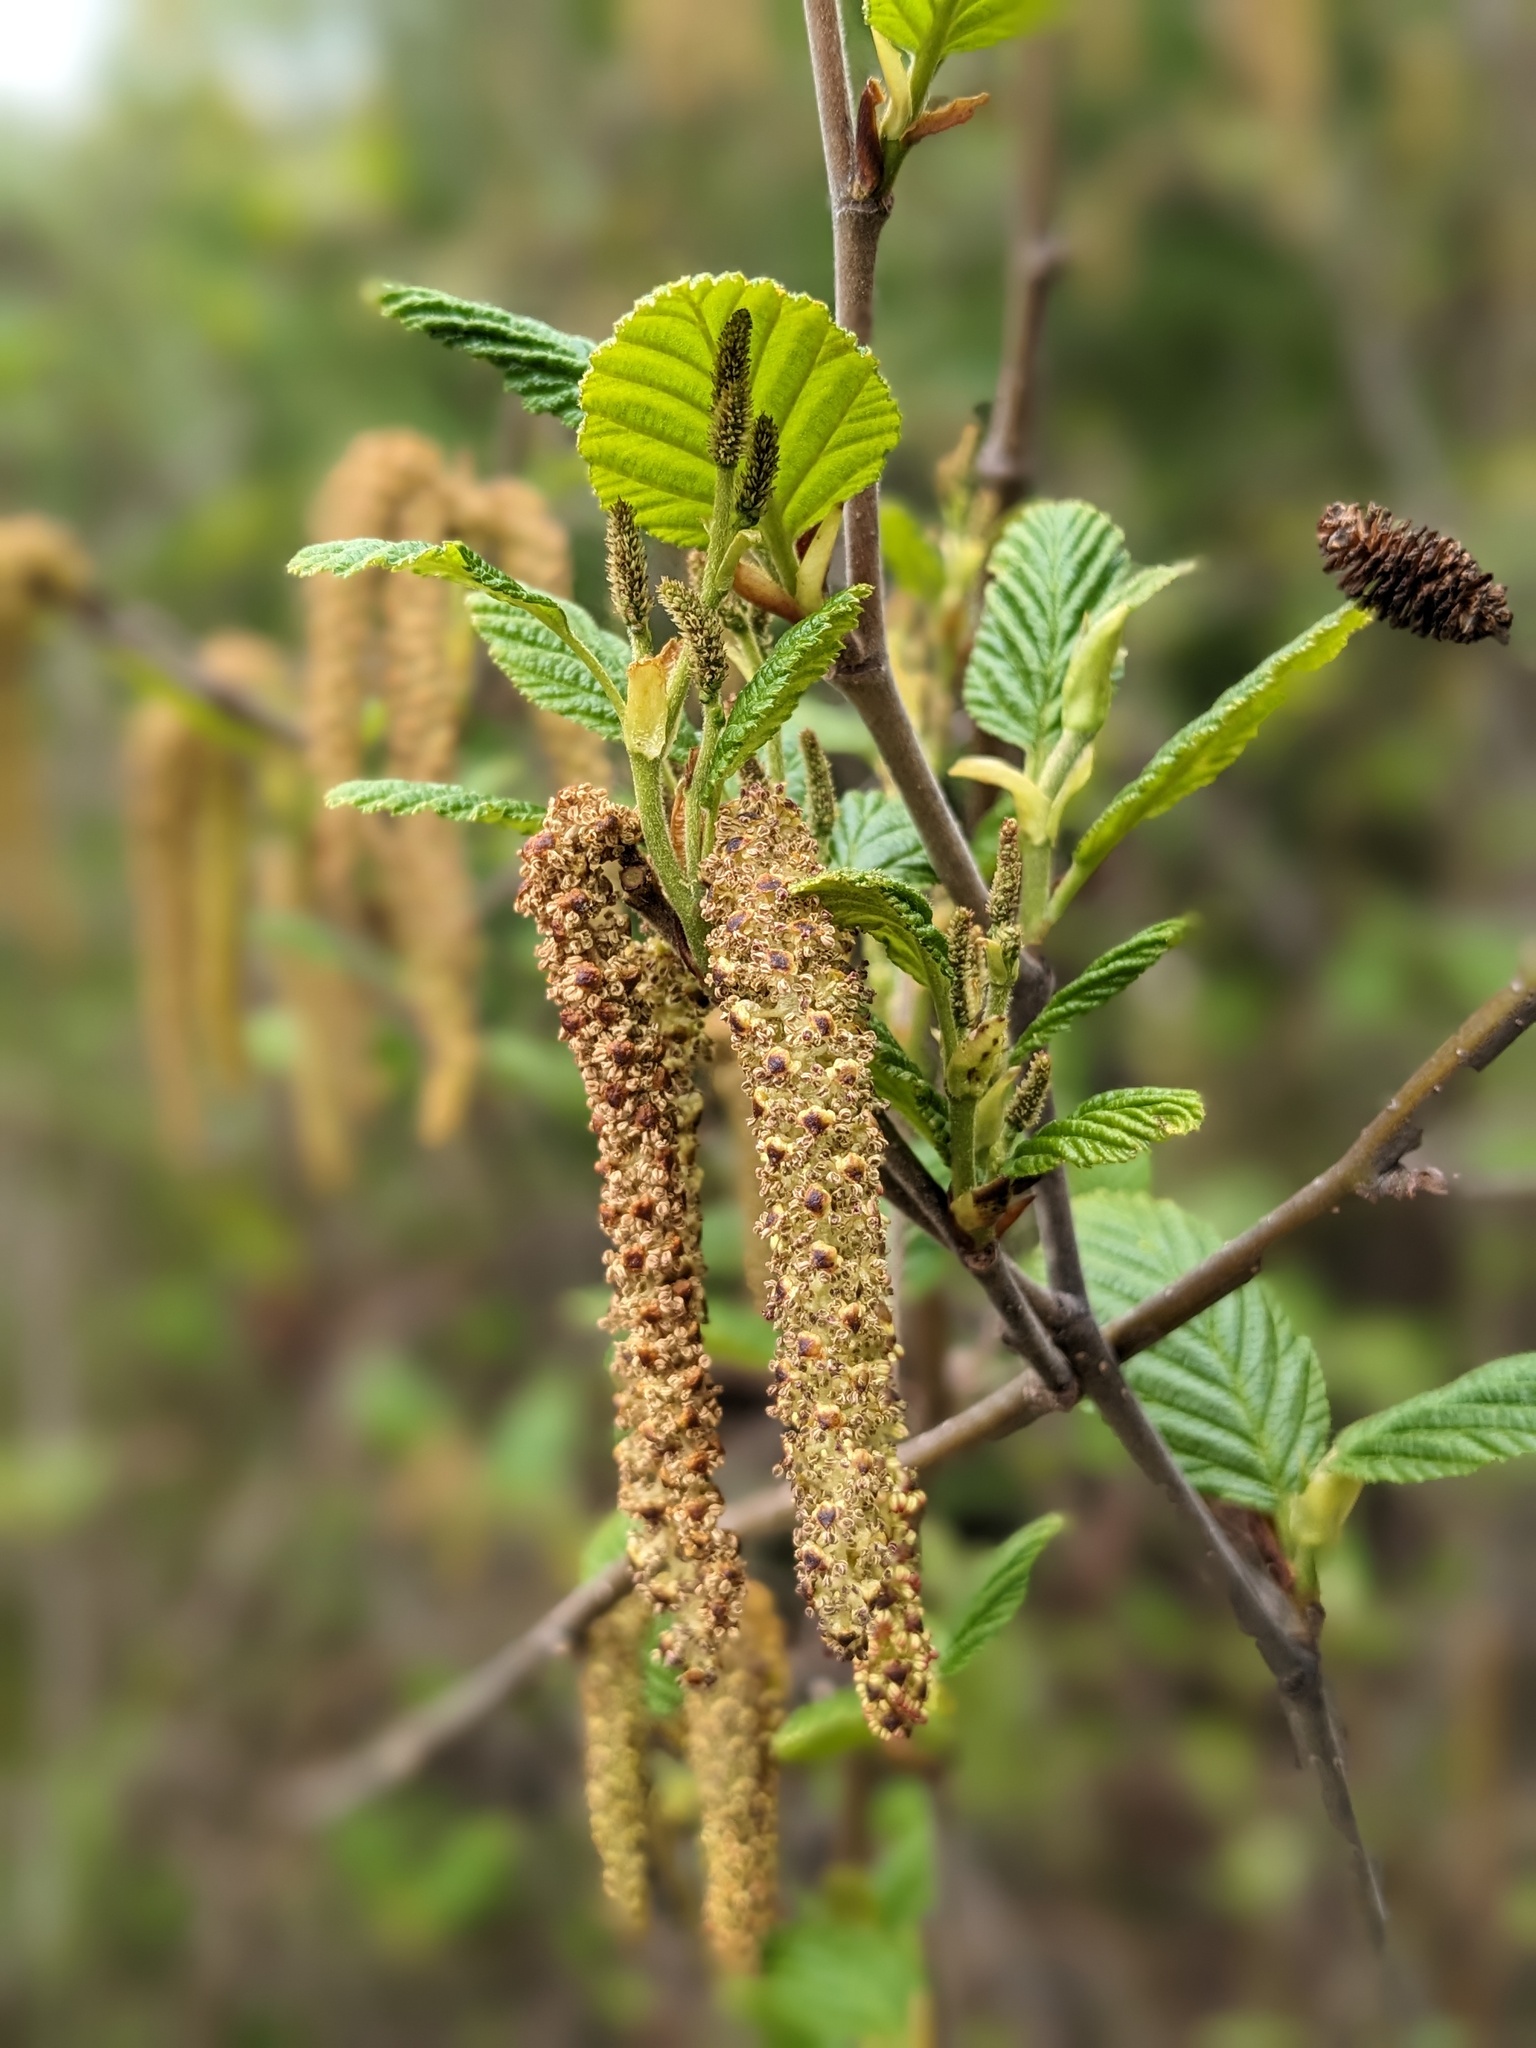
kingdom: Plantae
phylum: Tracheophyta
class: Magnoliopsida
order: Fagales
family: Betulaceae
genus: Alnus
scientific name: Alnus alnobetula
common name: Green alder
